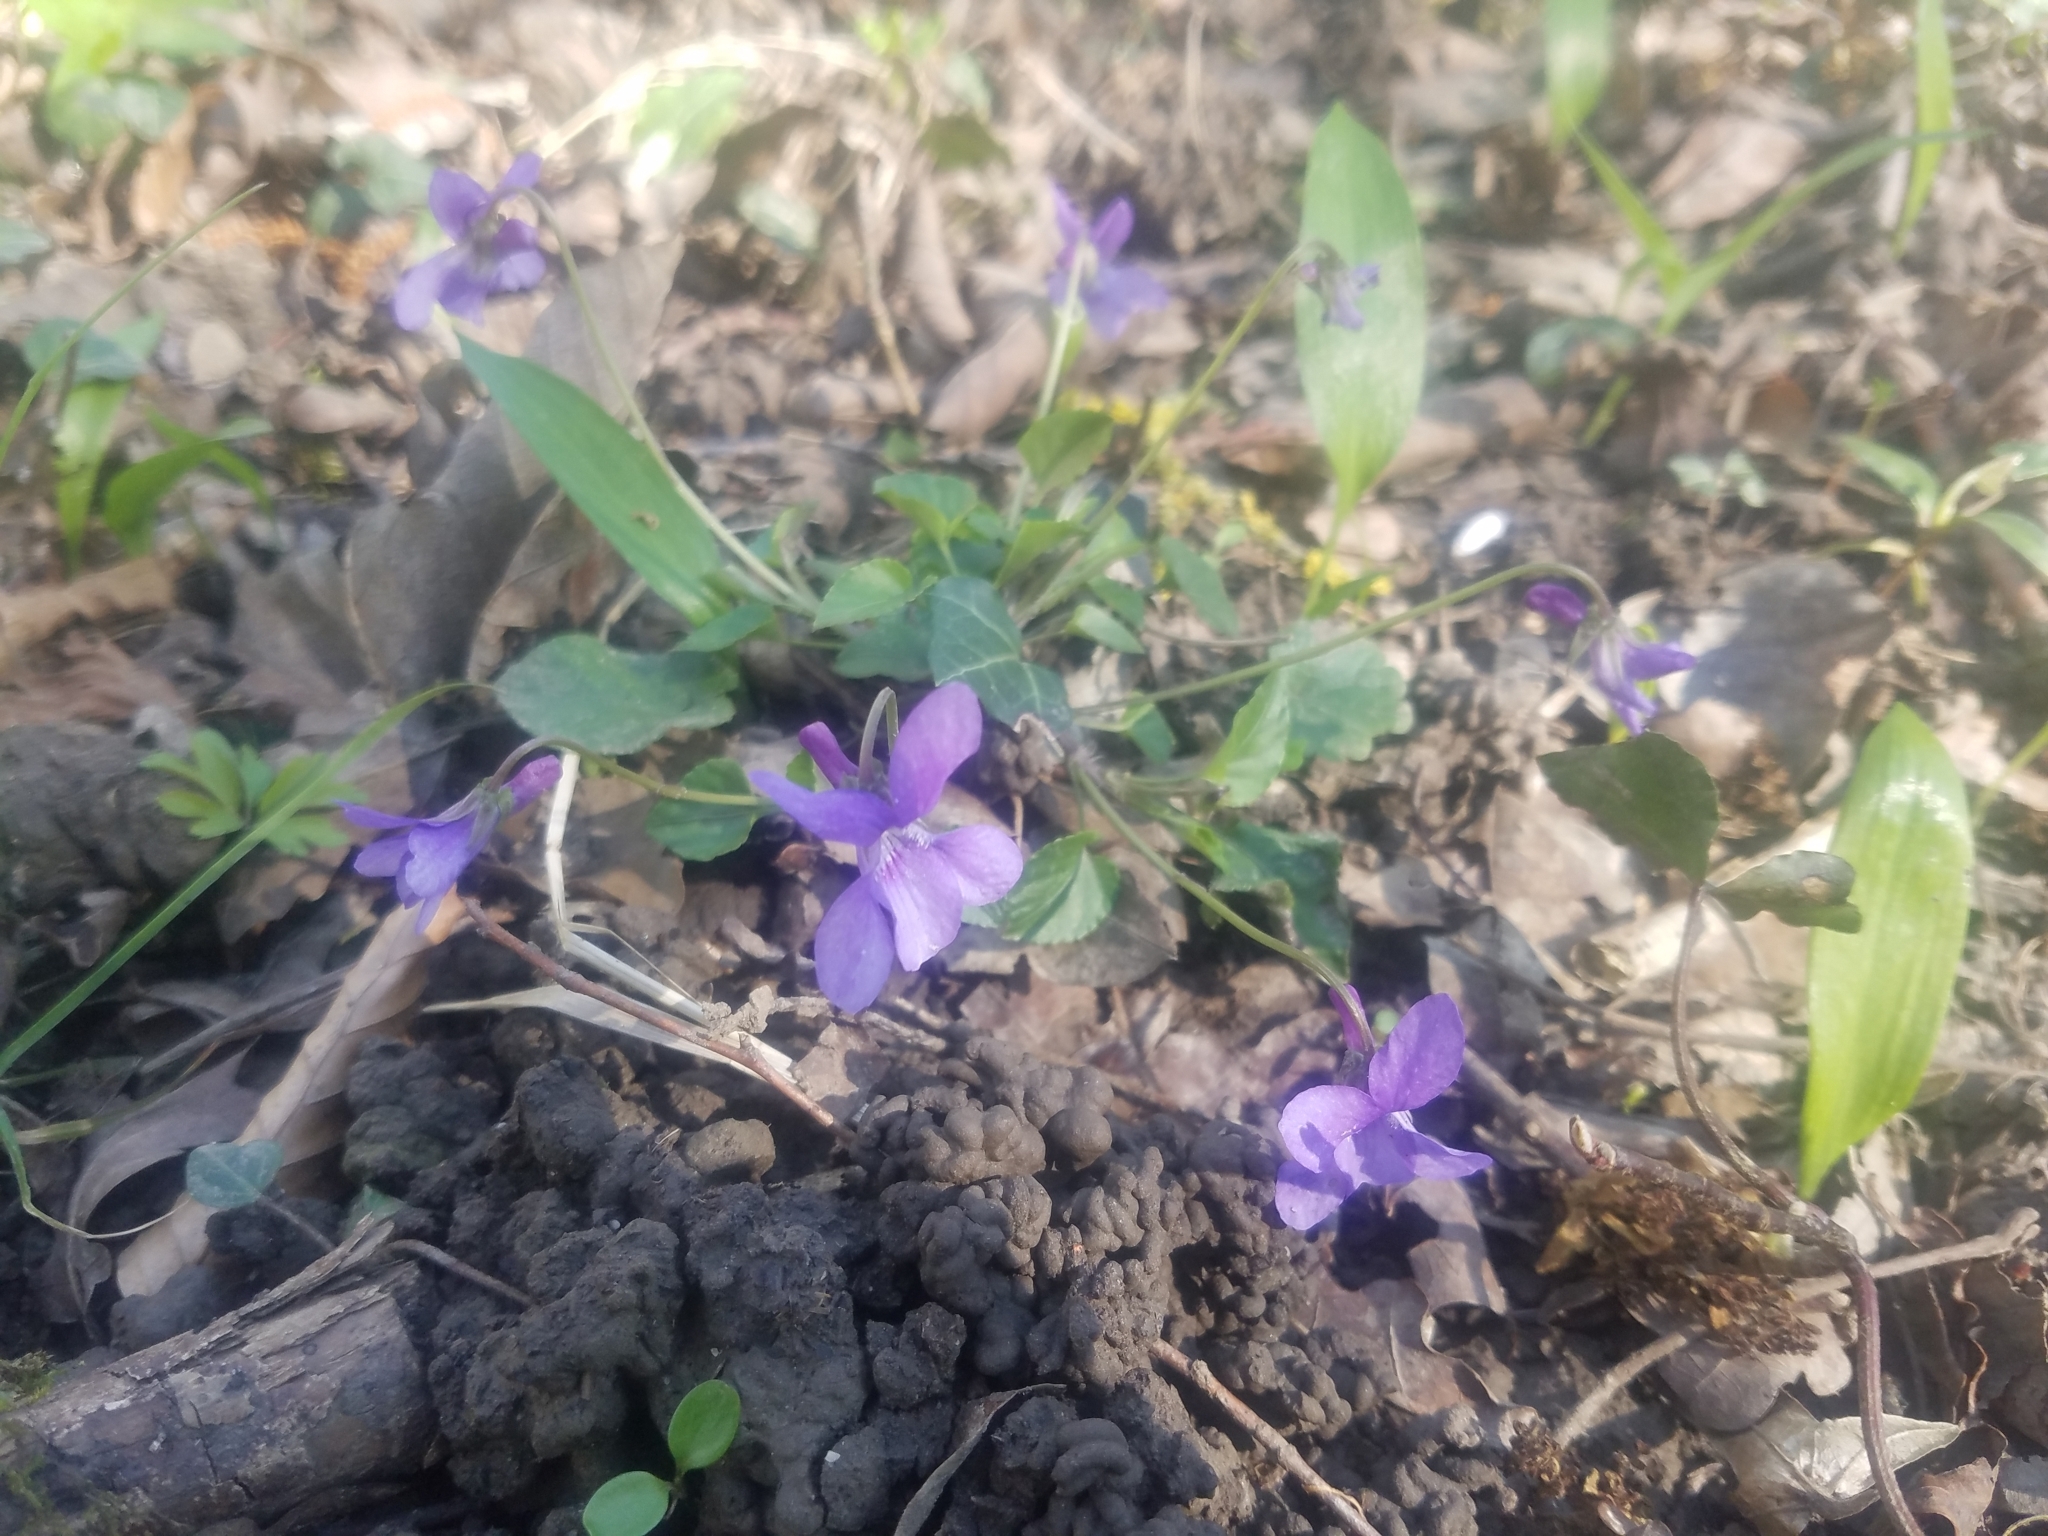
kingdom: Plantae
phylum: Tracheophyta
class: Magnoliopsida
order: Malpighiales
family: Violaceae
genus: Viola
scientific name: Viola reichenbachiana
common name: Early dog-violet
